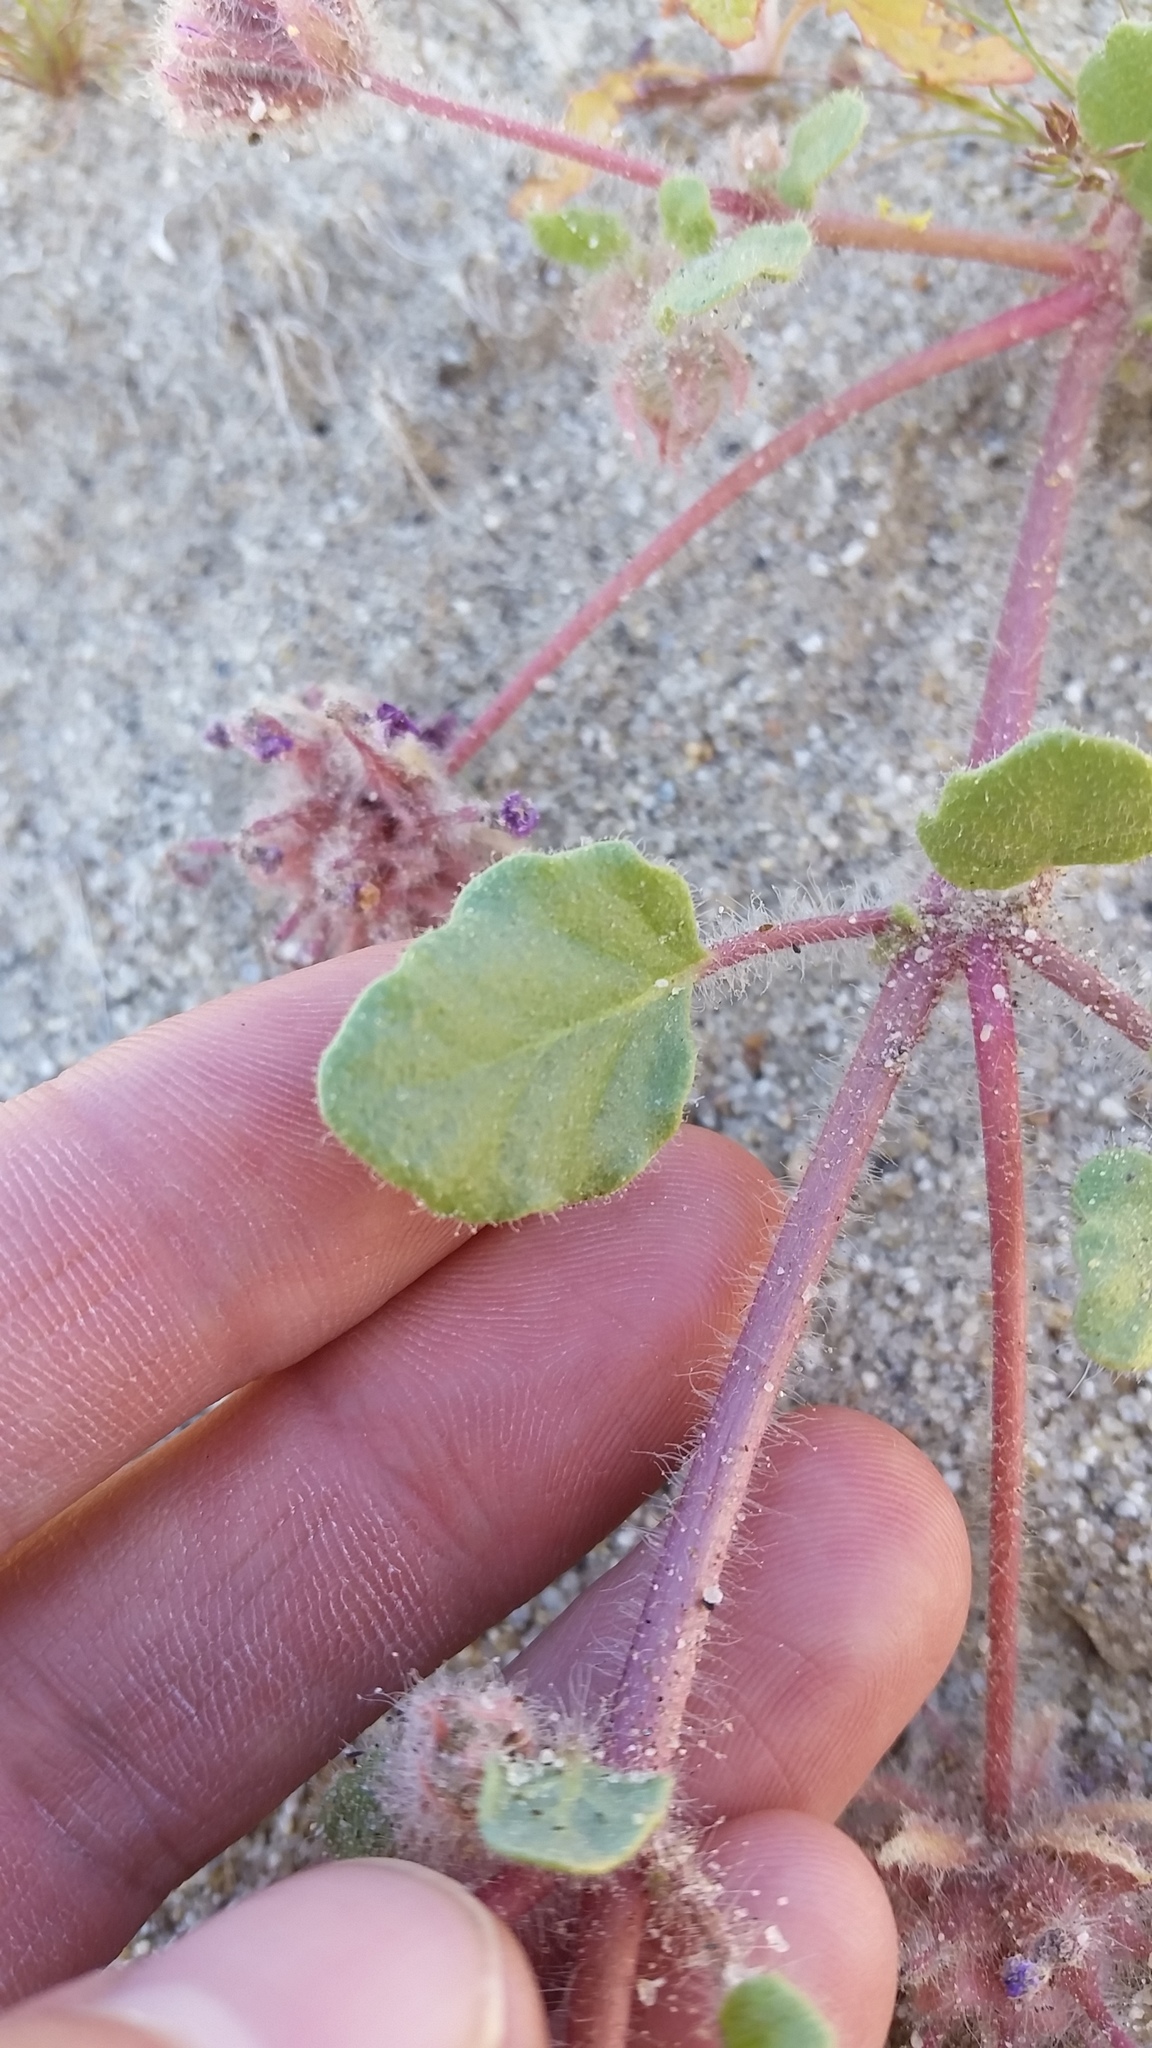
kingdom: Plantae
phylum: Tracheophyta
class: Magnoliopsida
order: Caryophyllales
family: Nyctaginaceae
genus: Abronia
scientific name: Abronia villosa
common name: Desert sand-verbena
